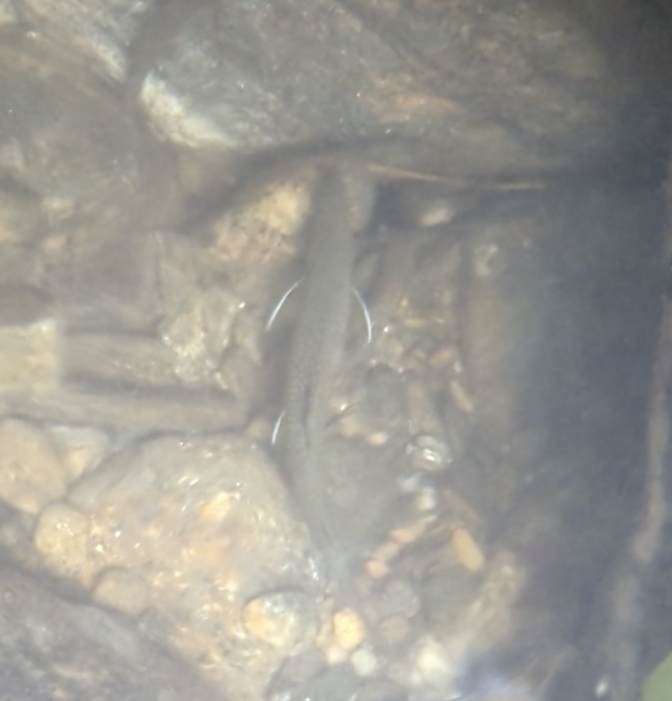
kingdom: Animalia
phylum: Chordata
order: Salmoniformes
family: Salmonidae
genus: Salvelinus
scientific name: Salvelinus fontinalis
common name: Brook trout
